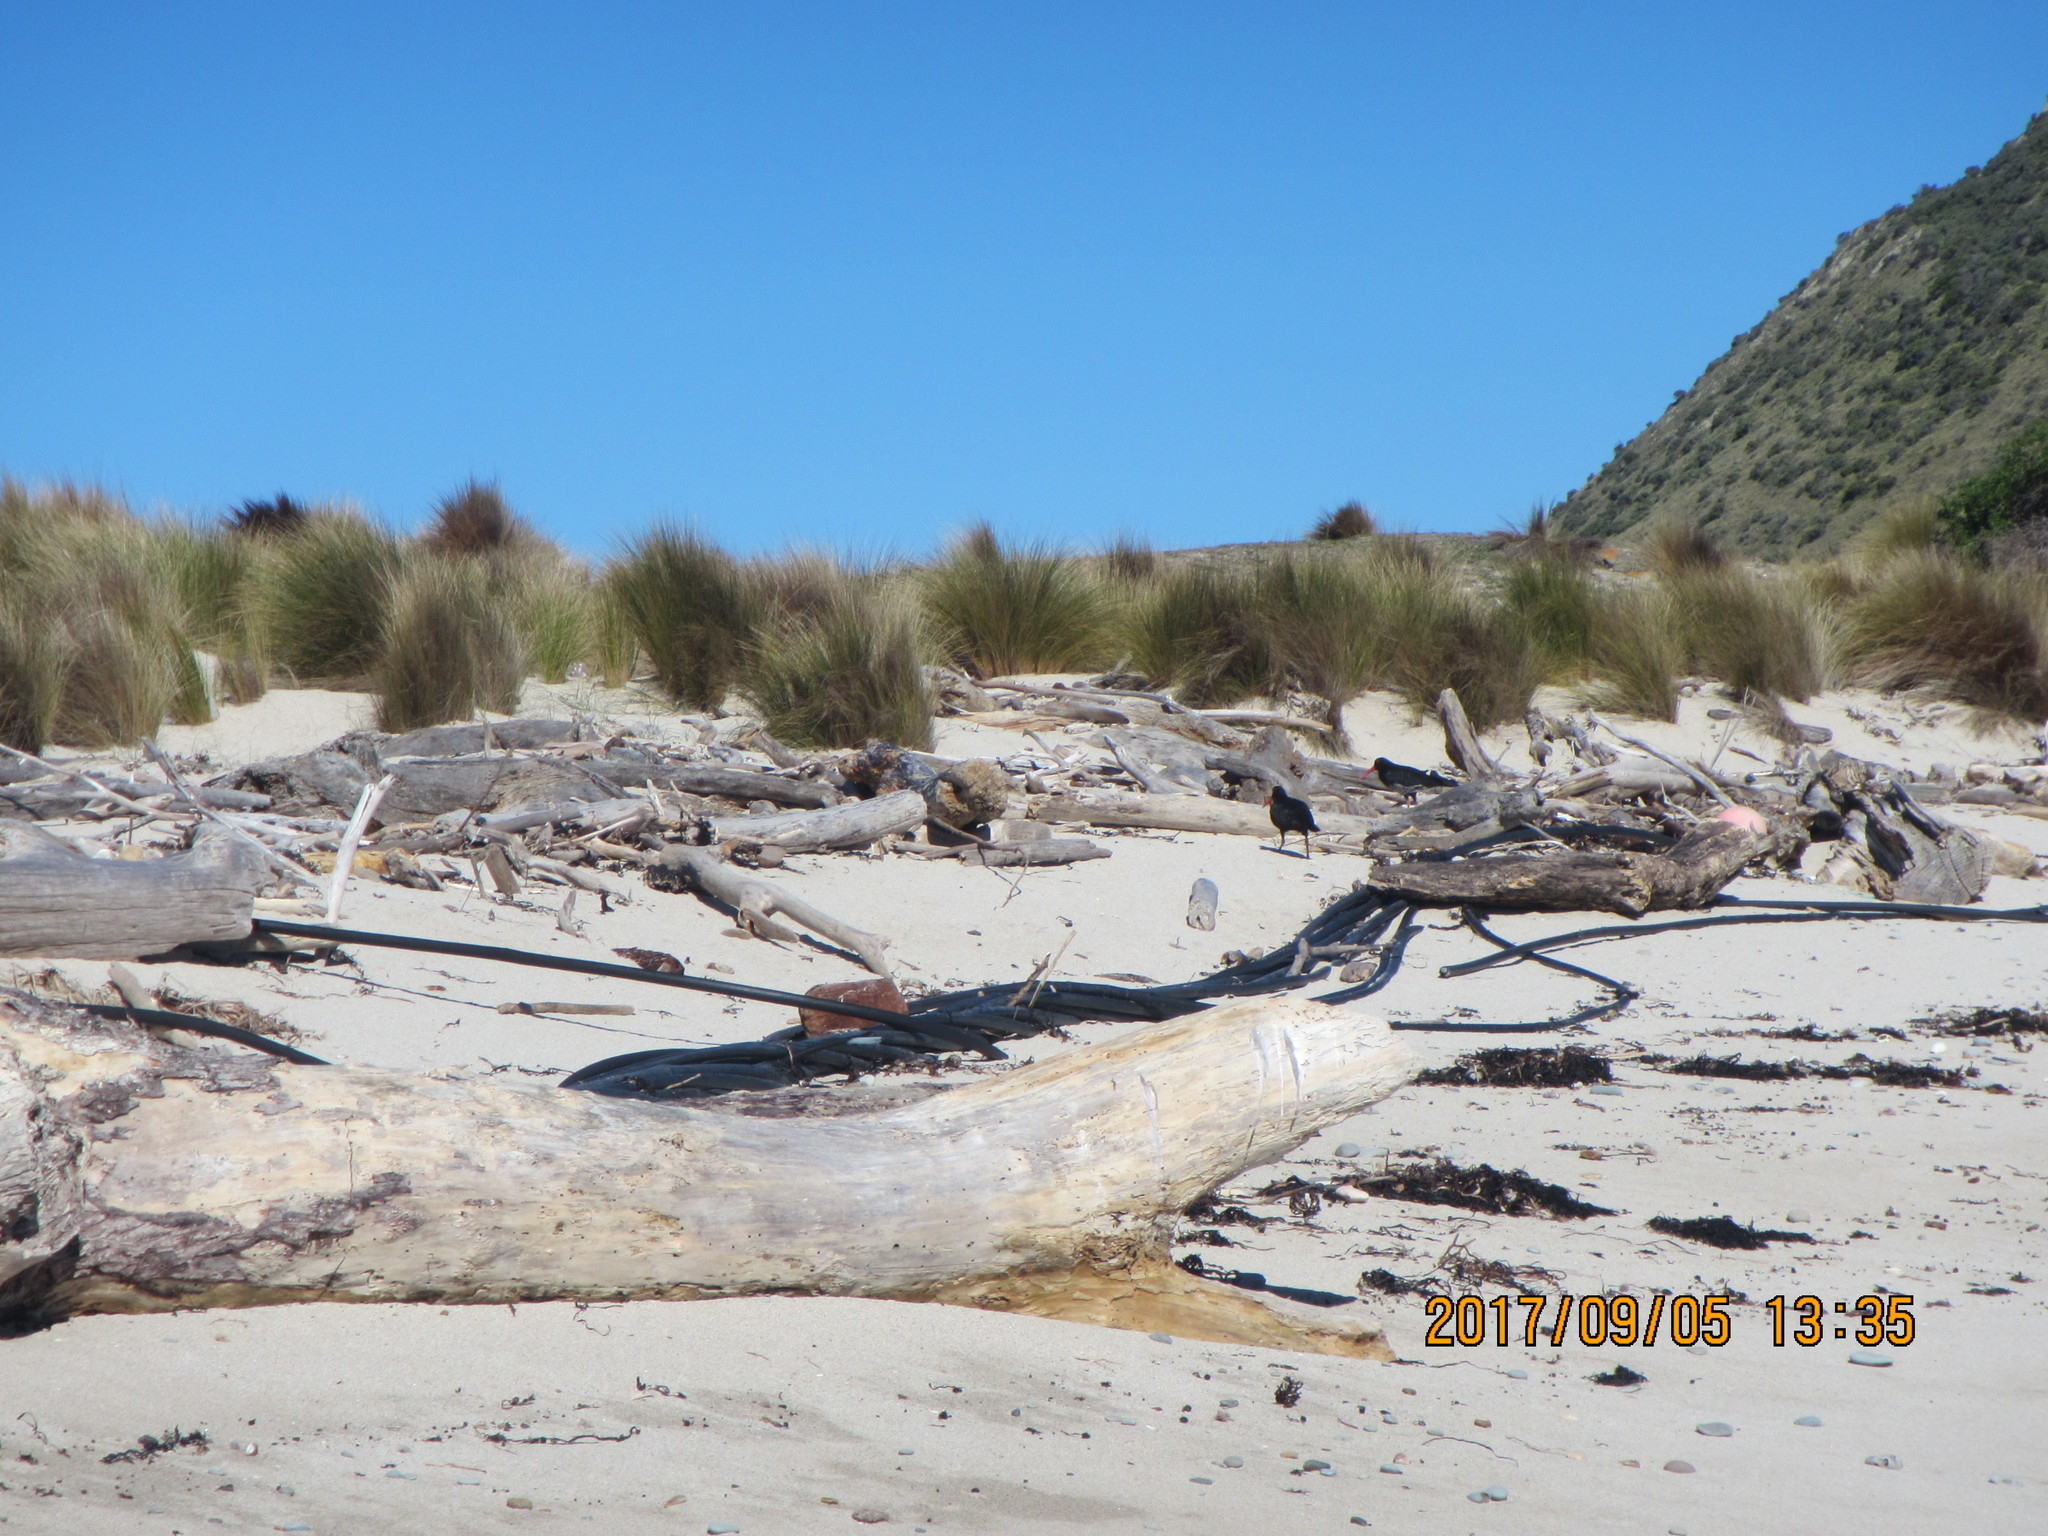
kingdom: Animalia
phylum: Chordata
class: Aves
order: Charadriiformes
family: Haematopodidae
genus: Haematopus
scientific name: Haematopus unicolor
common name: Variable oystercatcher
